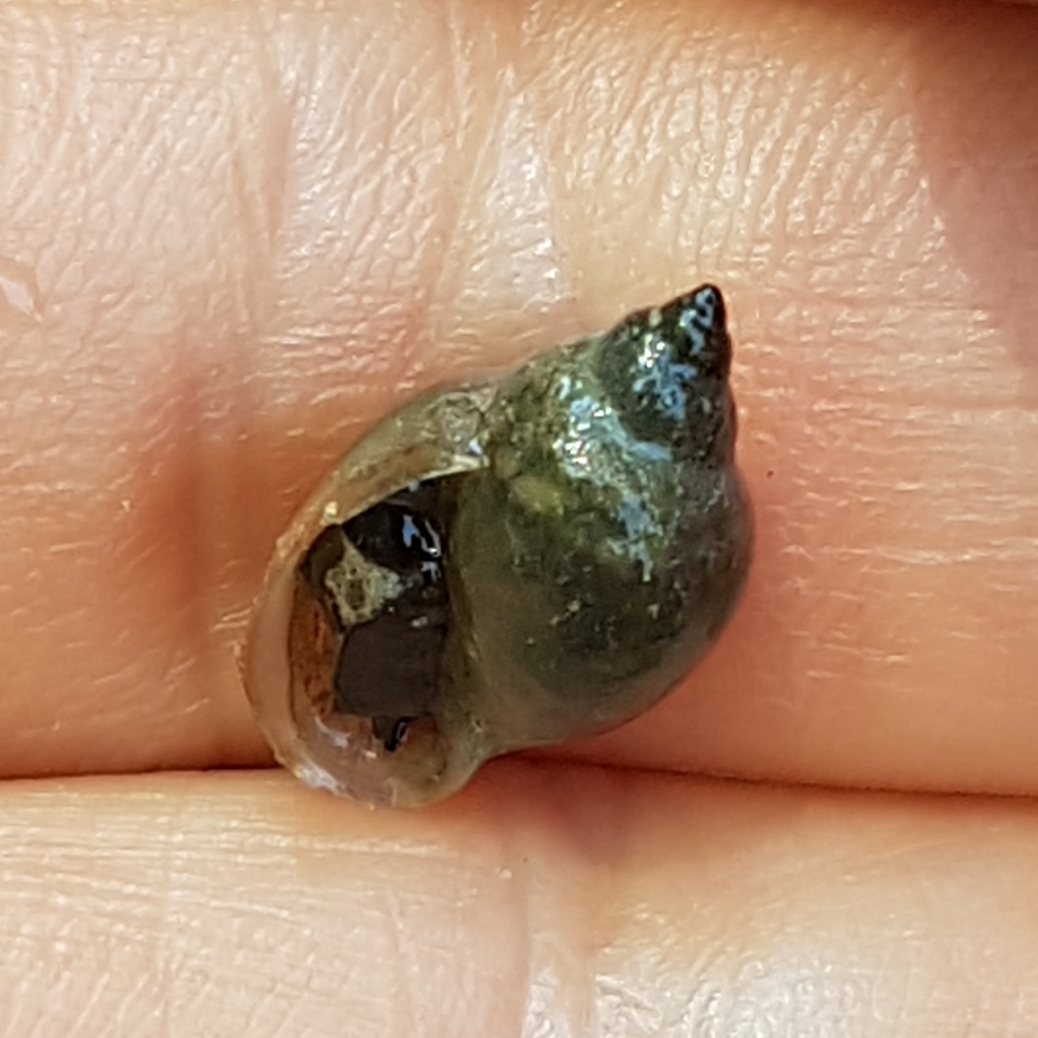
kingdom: Animalia
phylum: Mollusca
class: Gastropoda
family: Physidae
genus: Physella
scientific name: Physella acuta
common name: European physa
